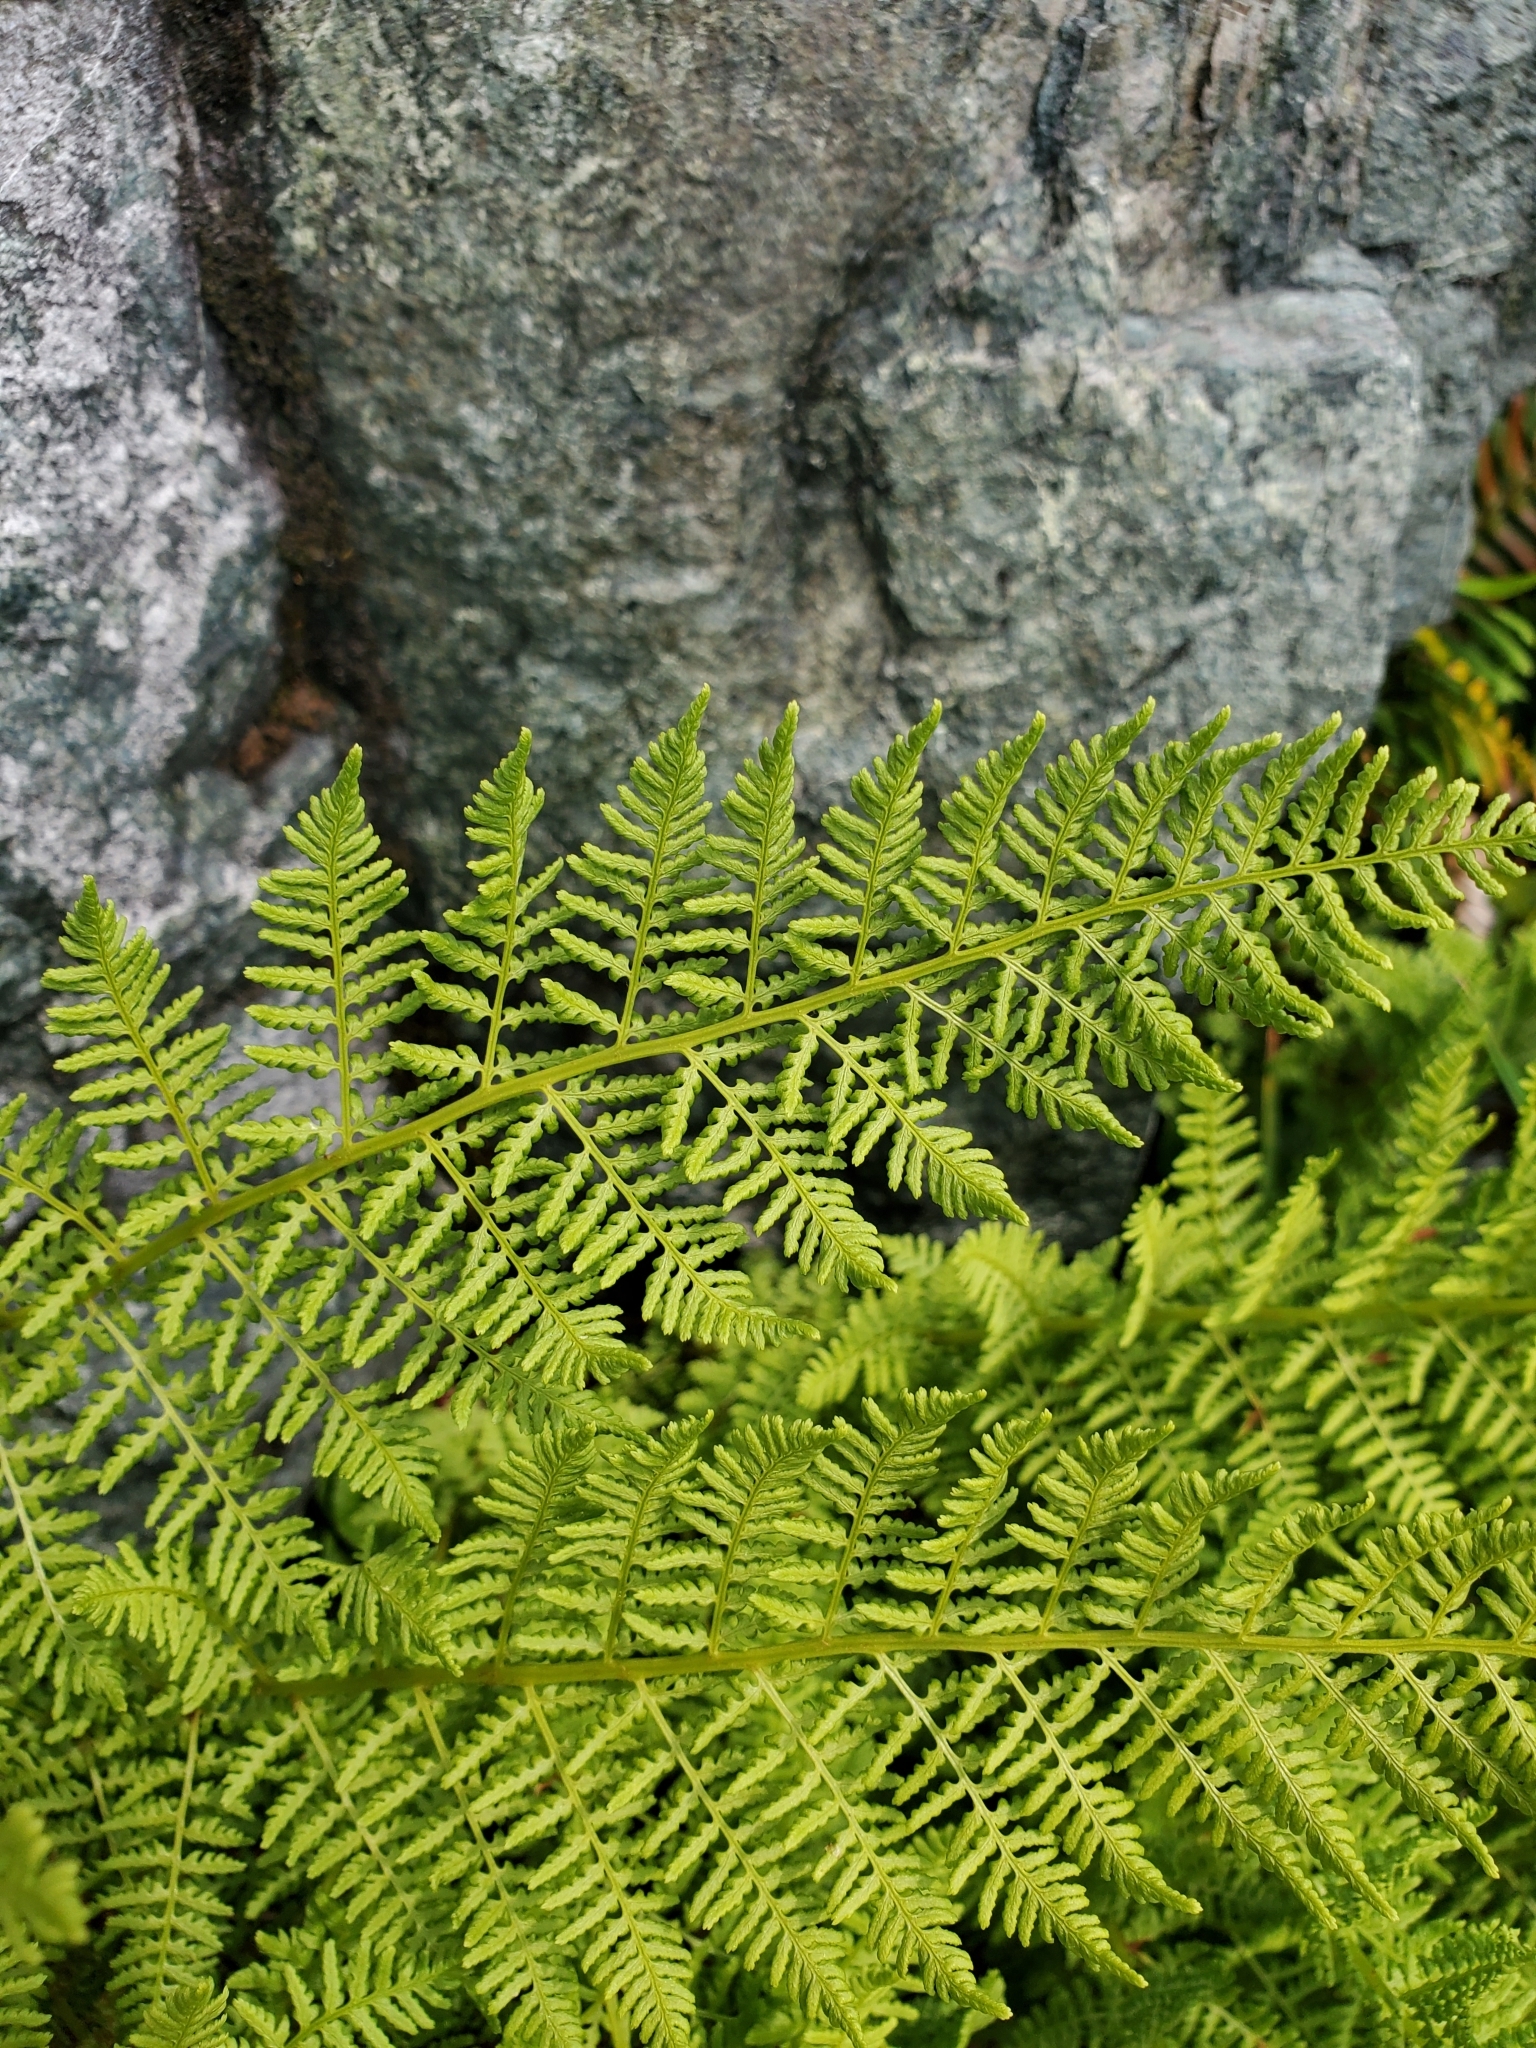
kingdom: Plantae
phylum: Tracheophyta
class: Polypodiopsida
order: Polypodiales
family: Athyriaceae
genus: Athyrium
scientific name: Athyrium americanum
